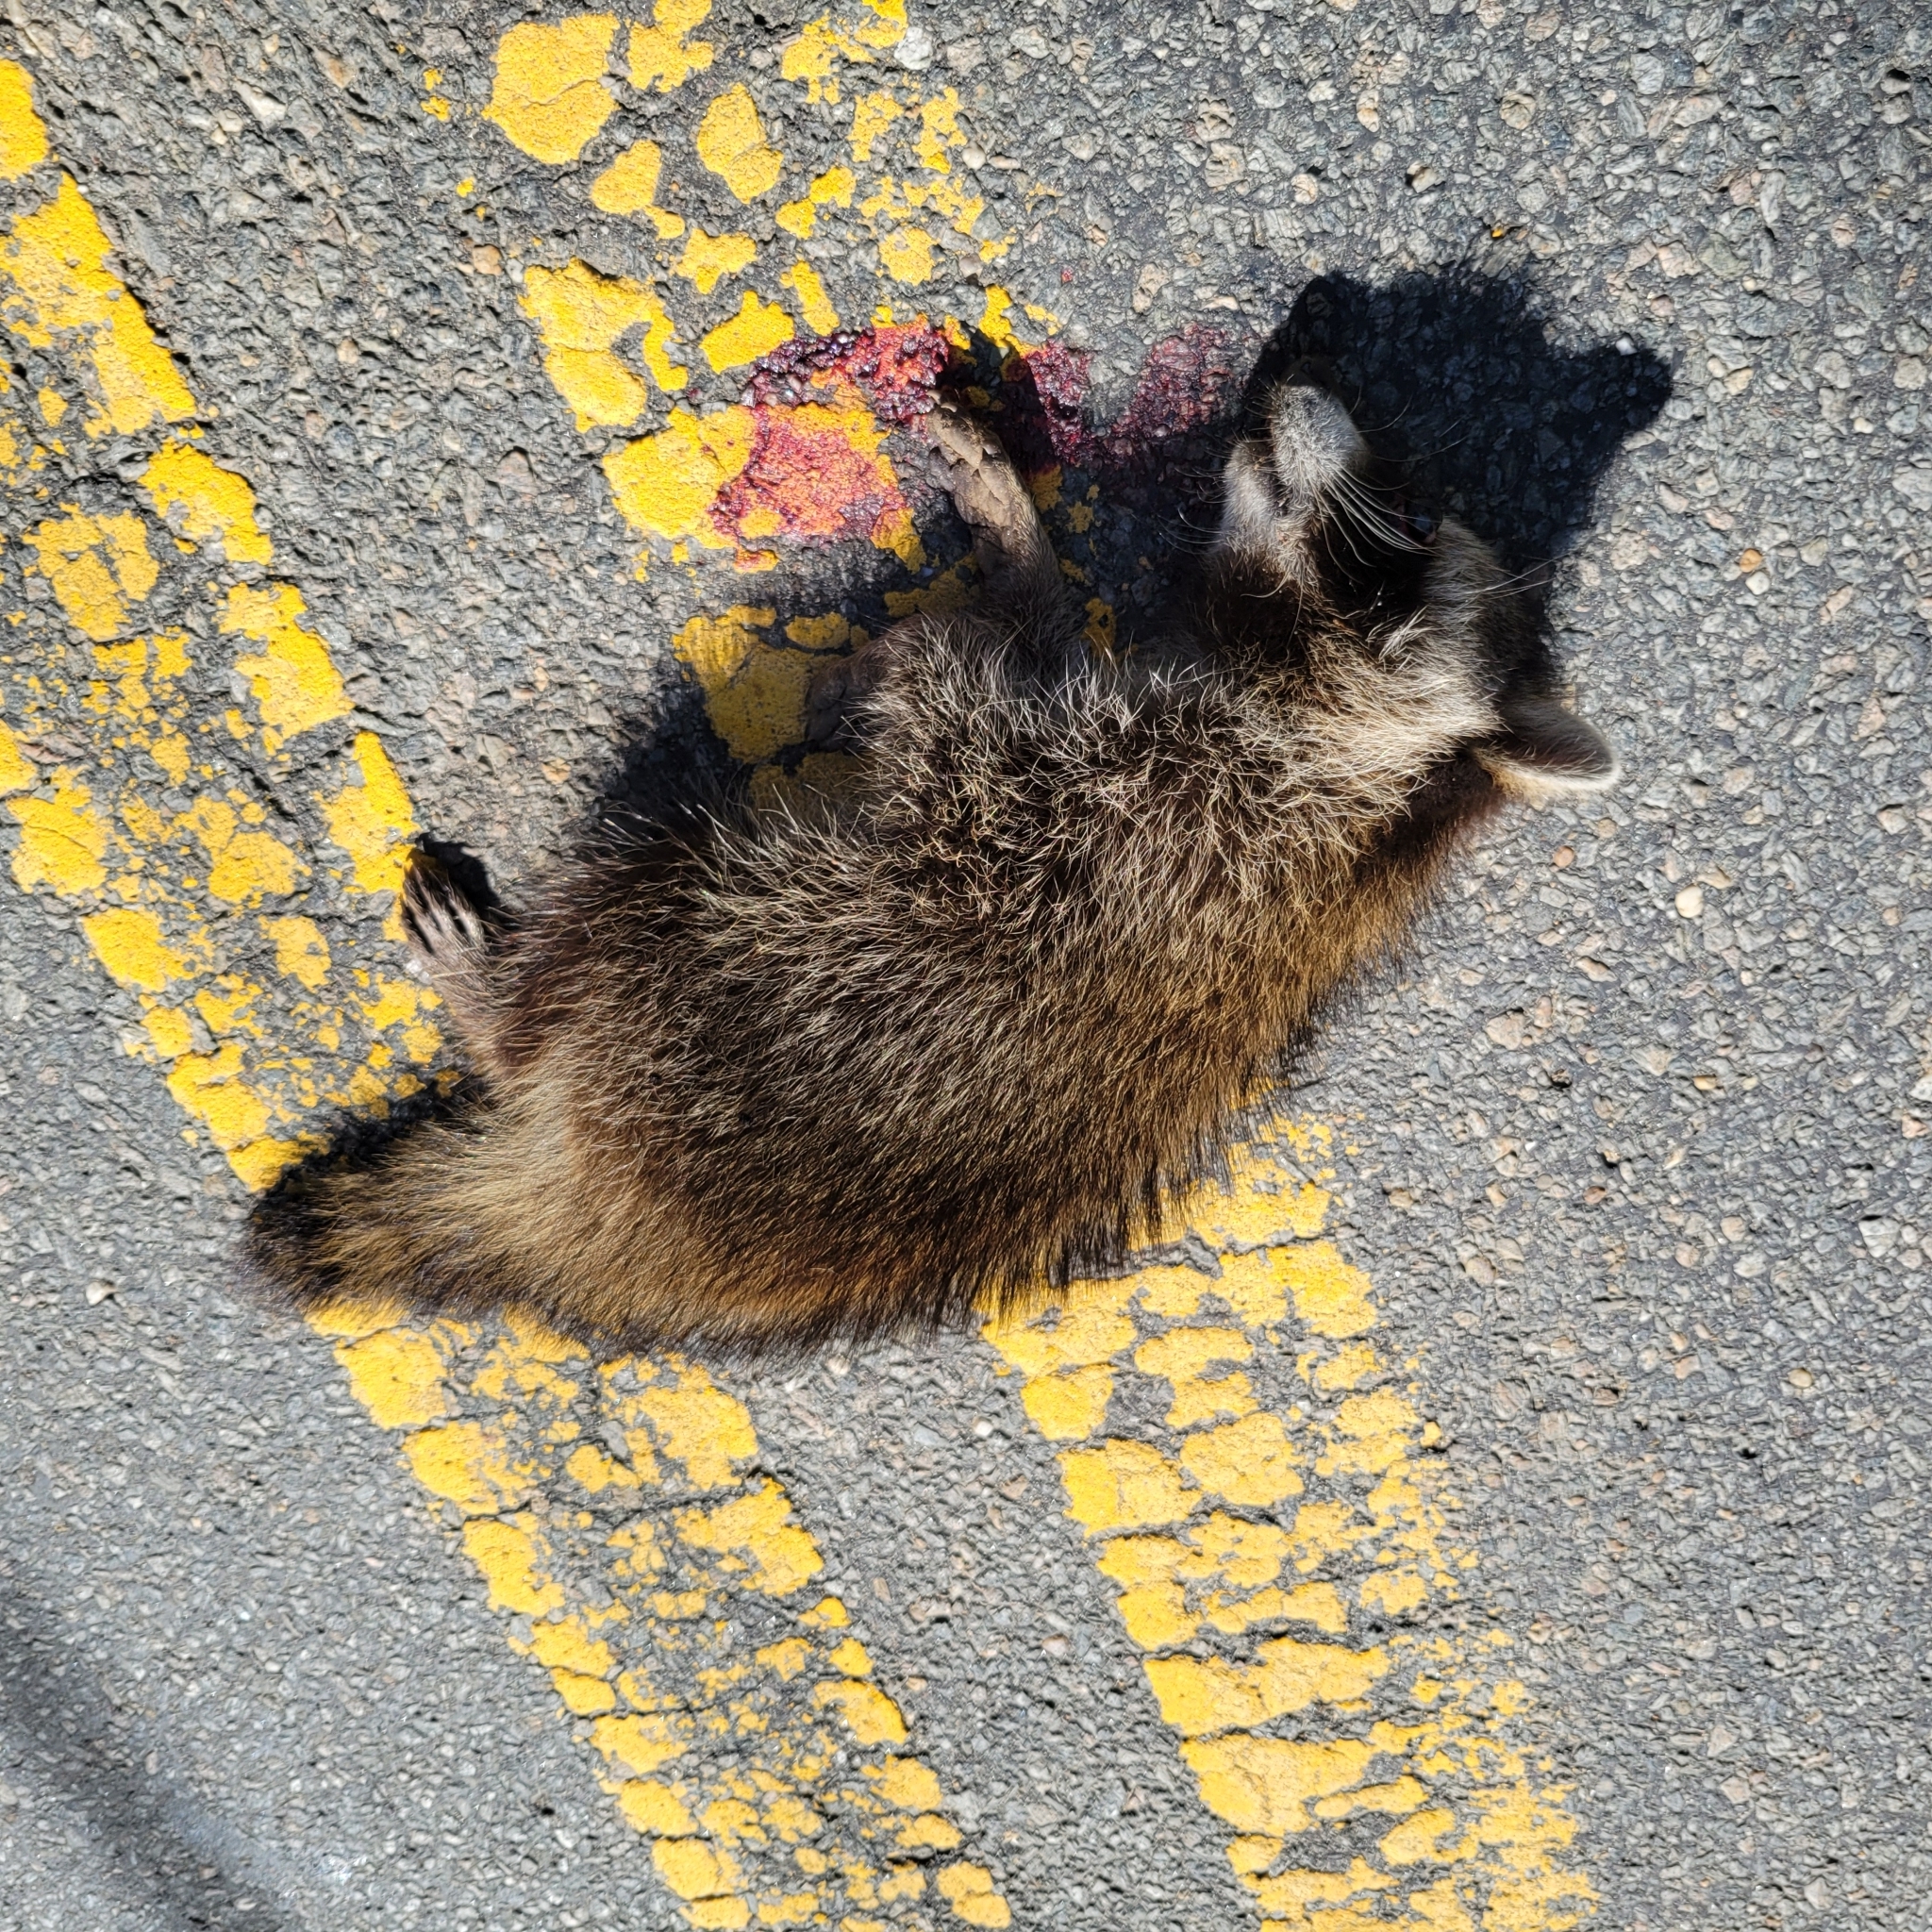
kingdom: Animalia
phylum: Chordata
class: Mammalia
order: Carnivora
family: Procyonidae
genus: Procyon
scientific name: Procyon lotor
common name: Raccoon
